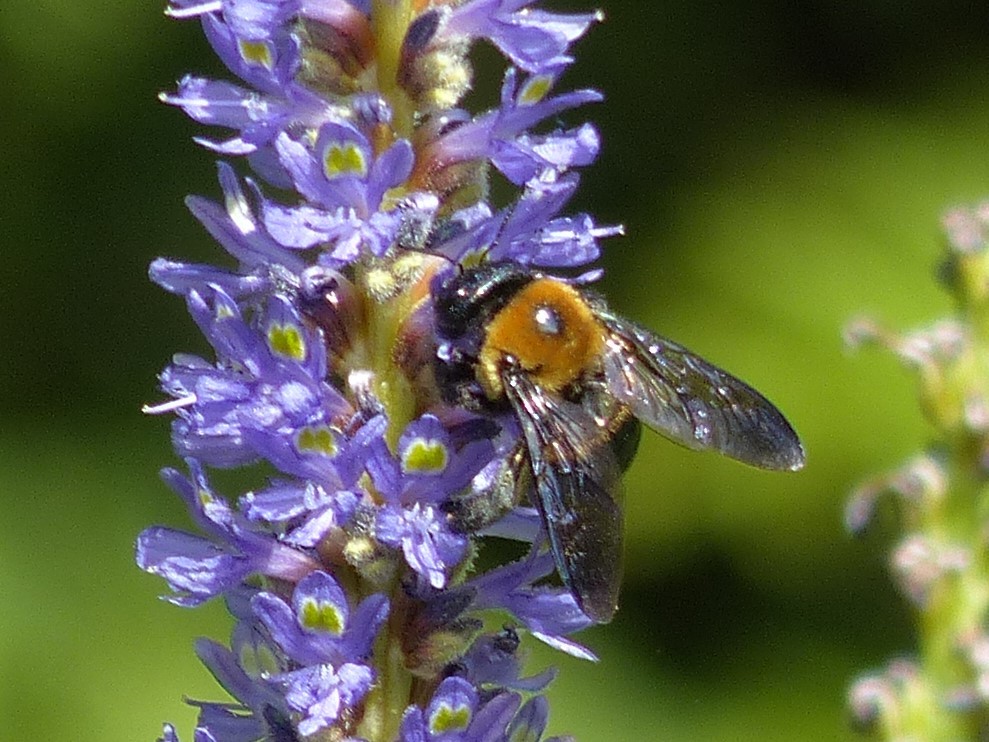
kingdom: Animalia
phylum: Arthropoda
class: Insecta
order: Hymenoptera
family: Apidae
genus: Xylocopa
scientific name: Xylocopa virginica
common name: Carpenter bee
